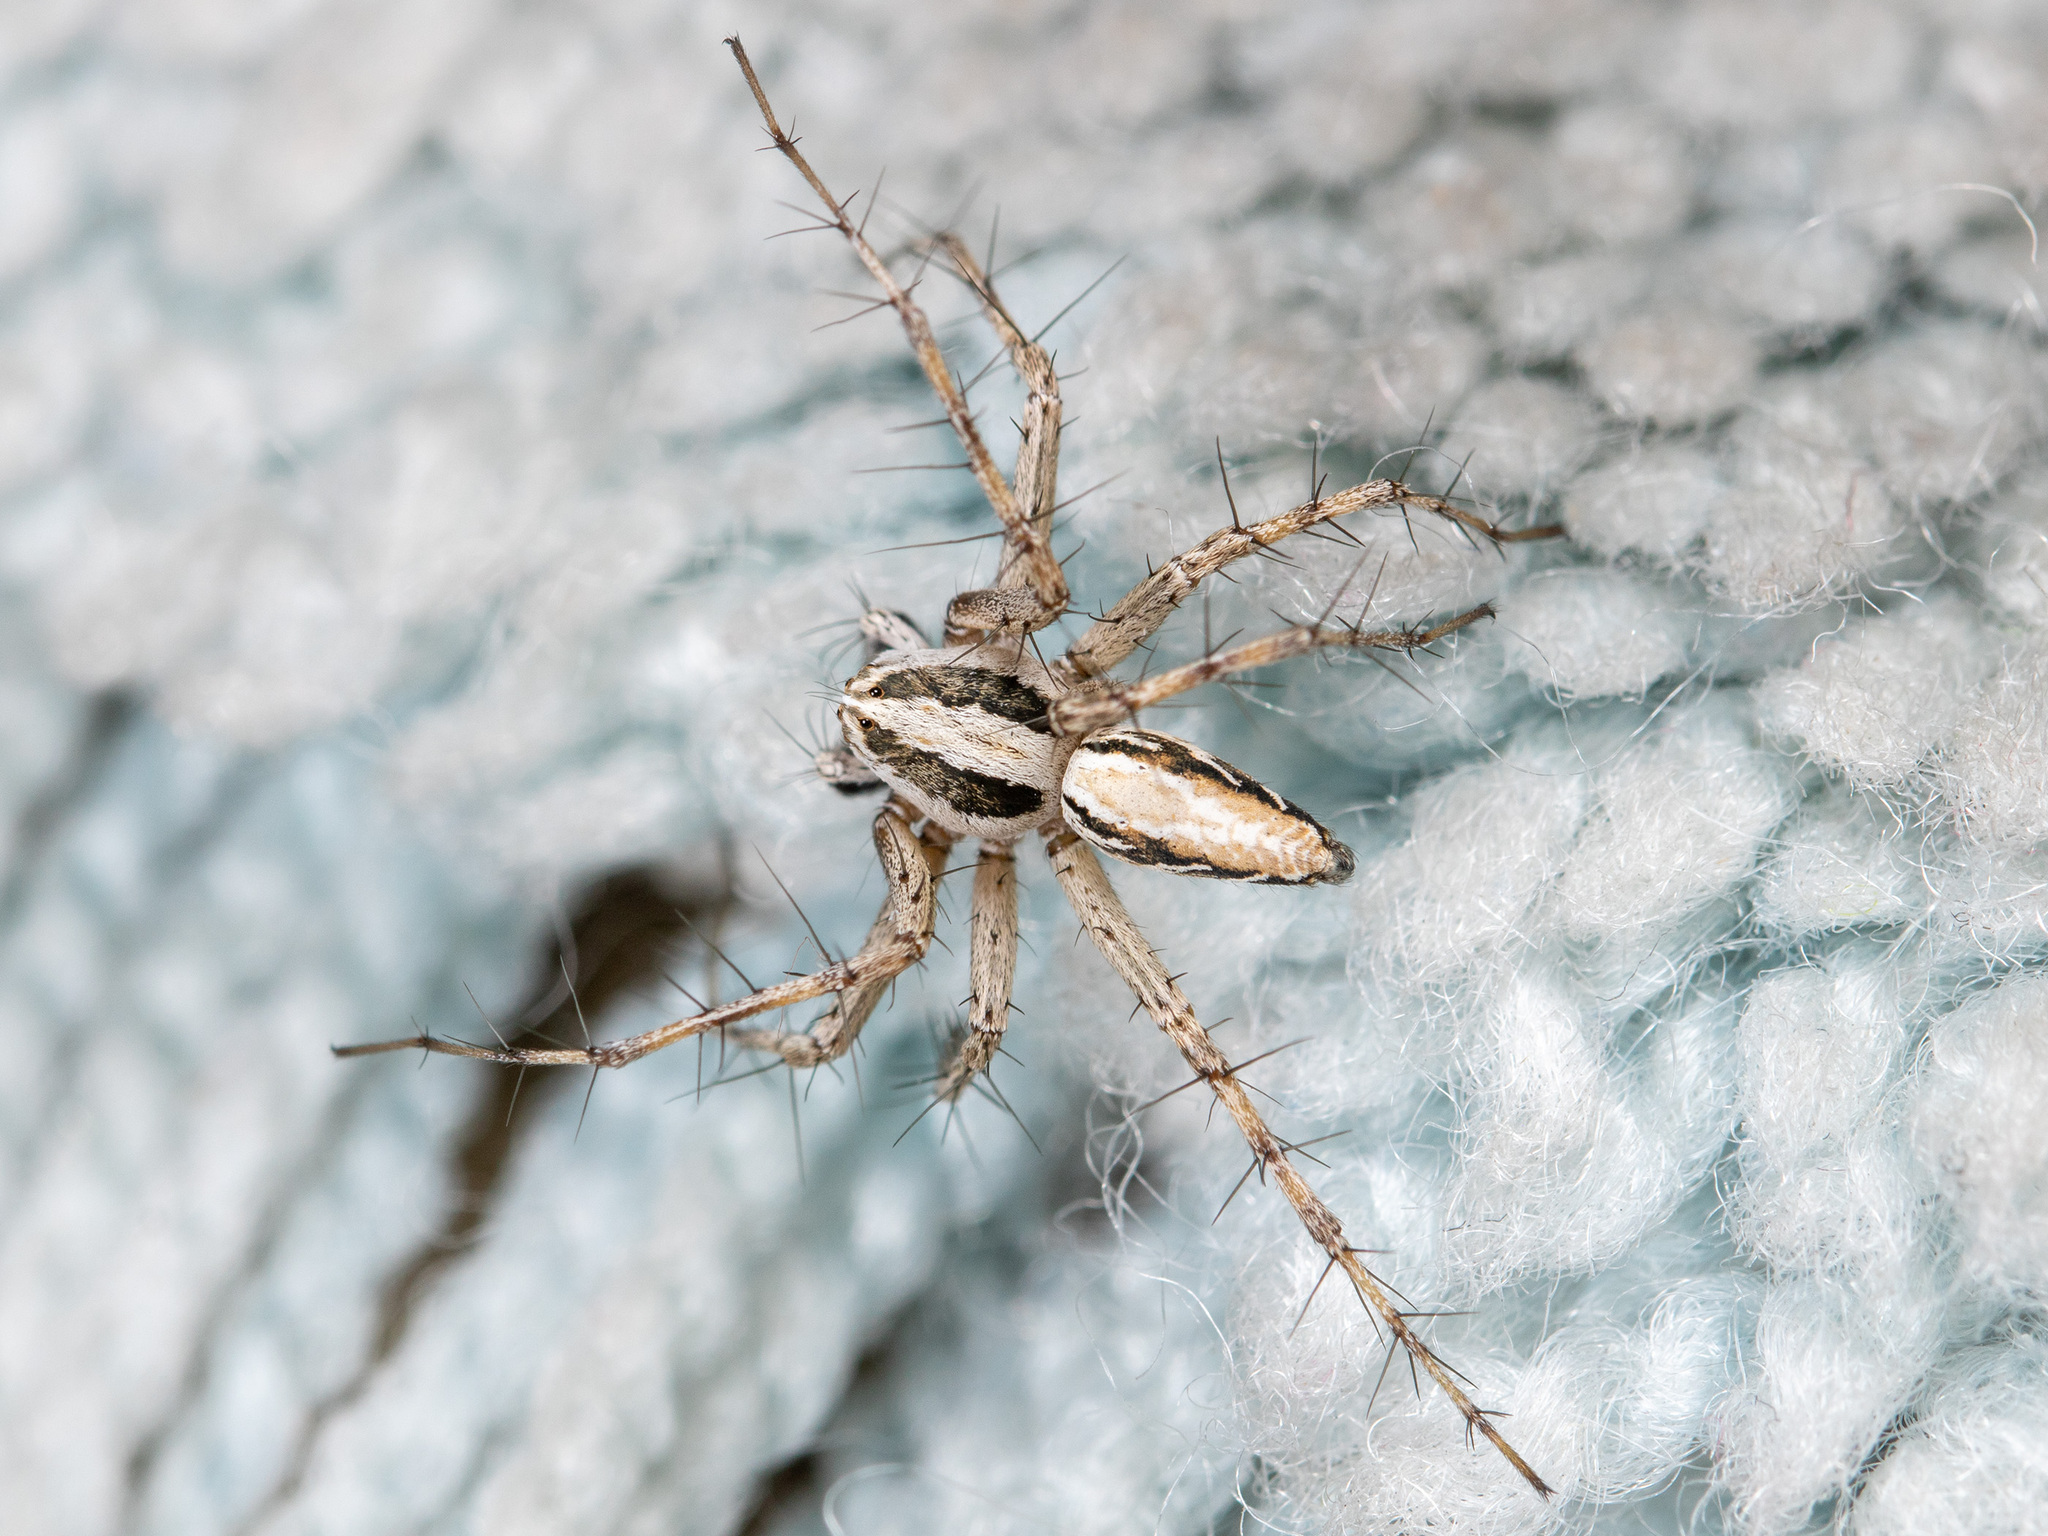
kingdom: Animalia
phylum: Arthropoda
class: Arachnida
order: Araneae
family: Oxyopidae
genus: Oxyopes
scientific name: Oxyopes globifer
